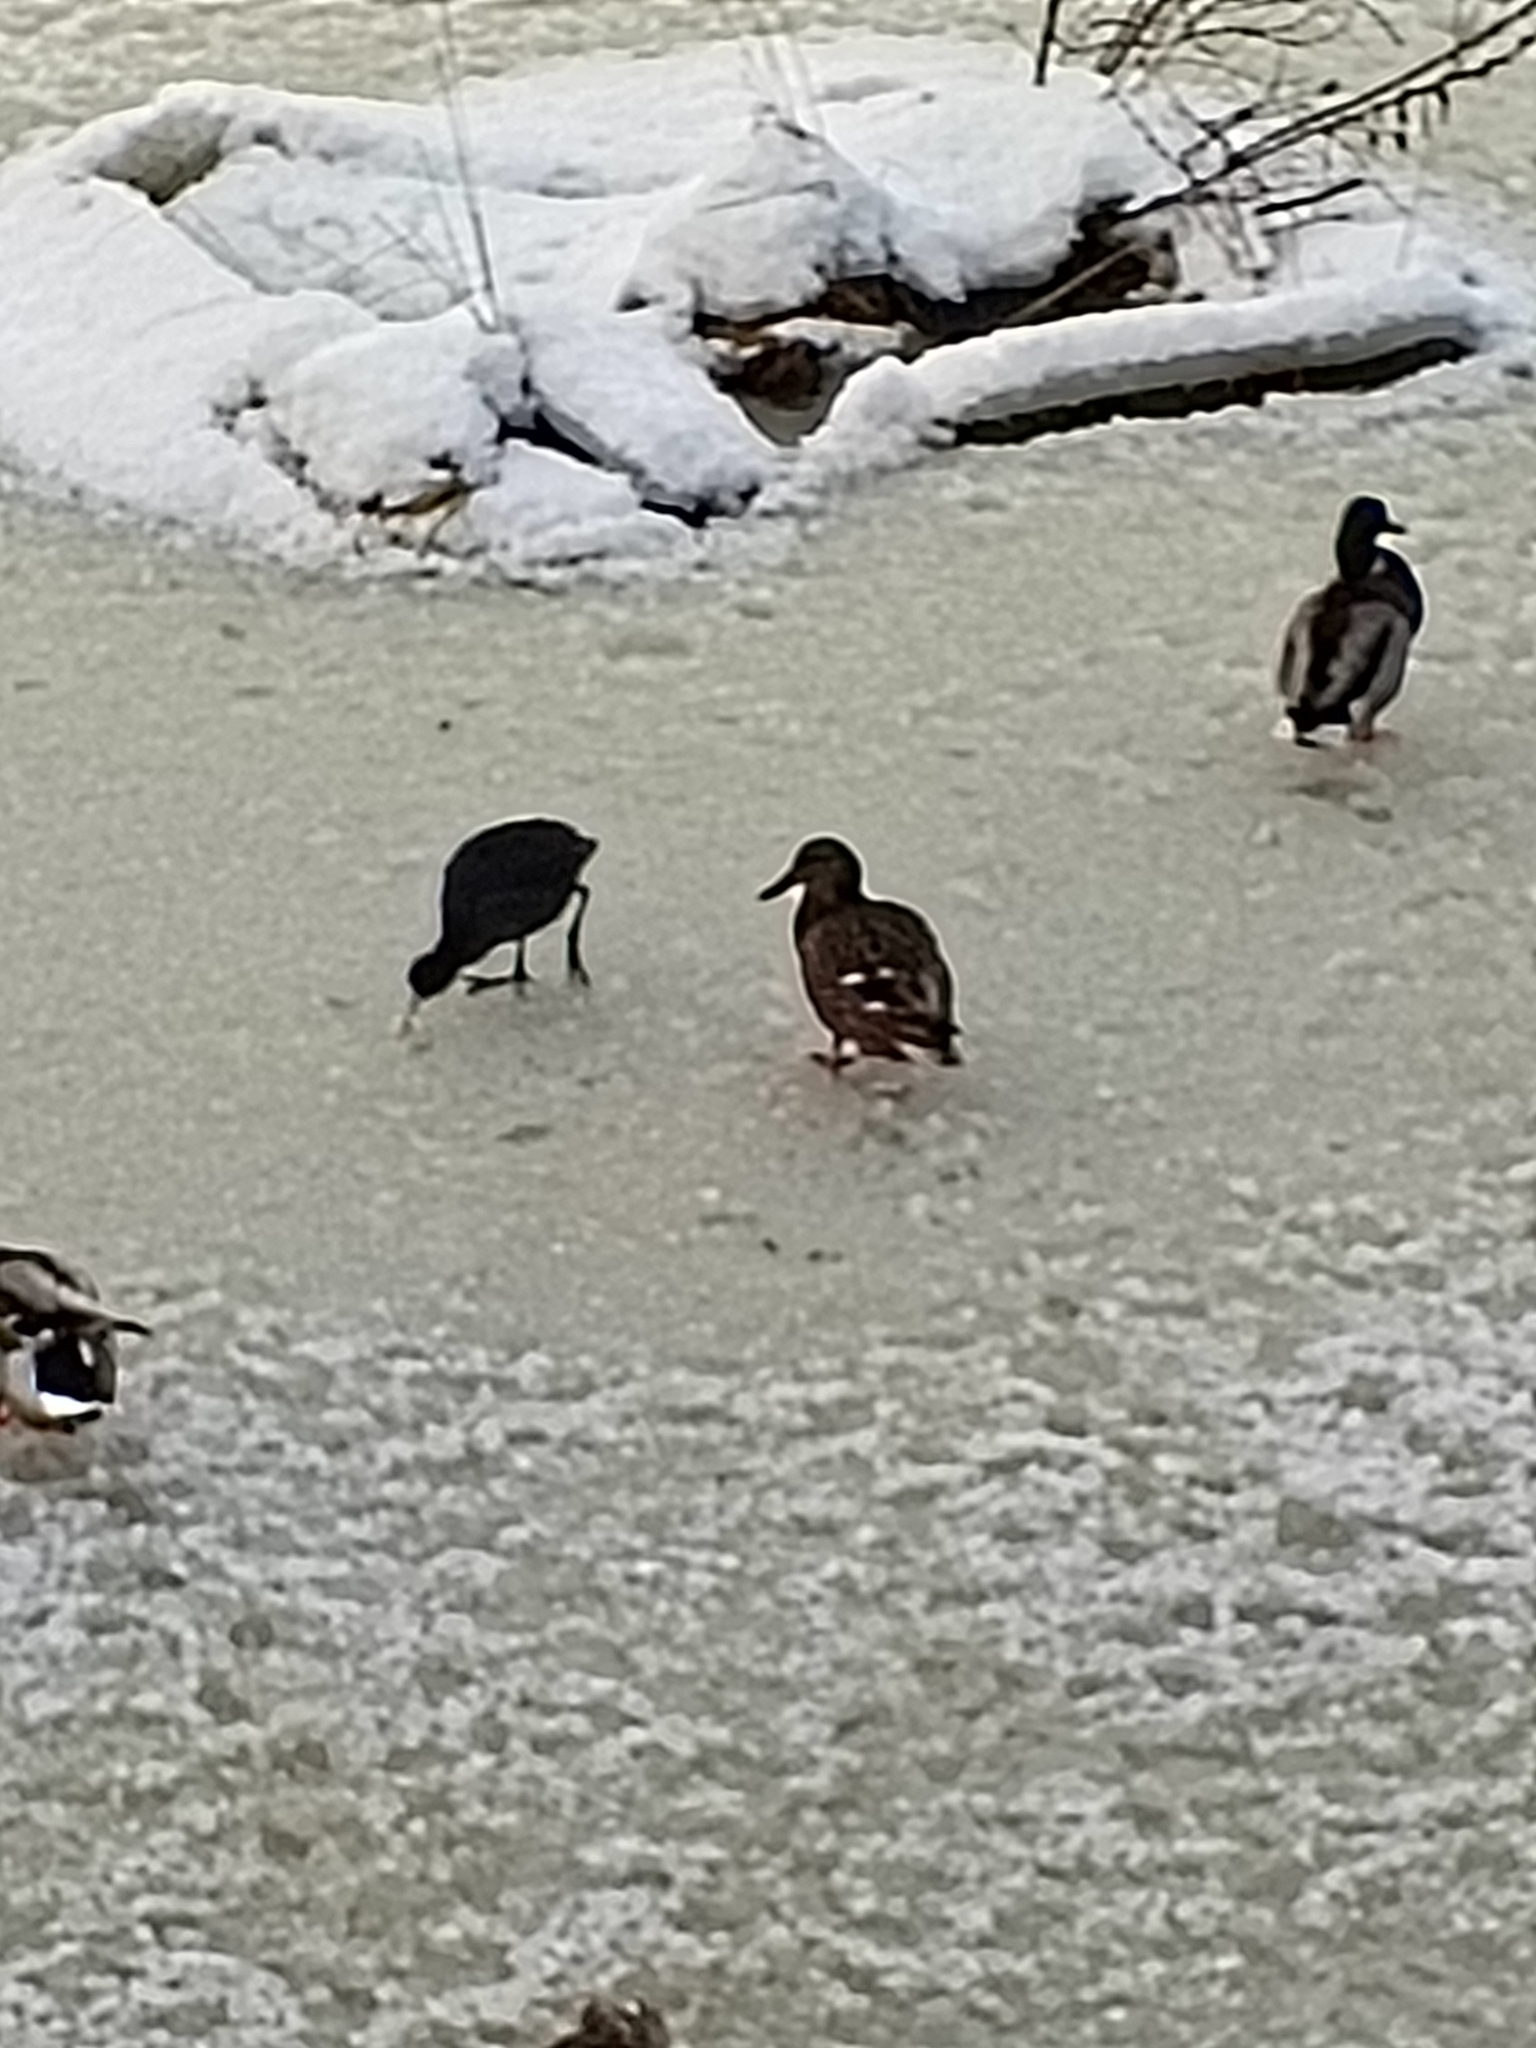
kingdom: Animalia
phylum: Chordata
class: Aves
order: Gruiformes
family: Rallidae
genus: Fulica
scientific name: Fulica atra
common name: Eurasian coot
